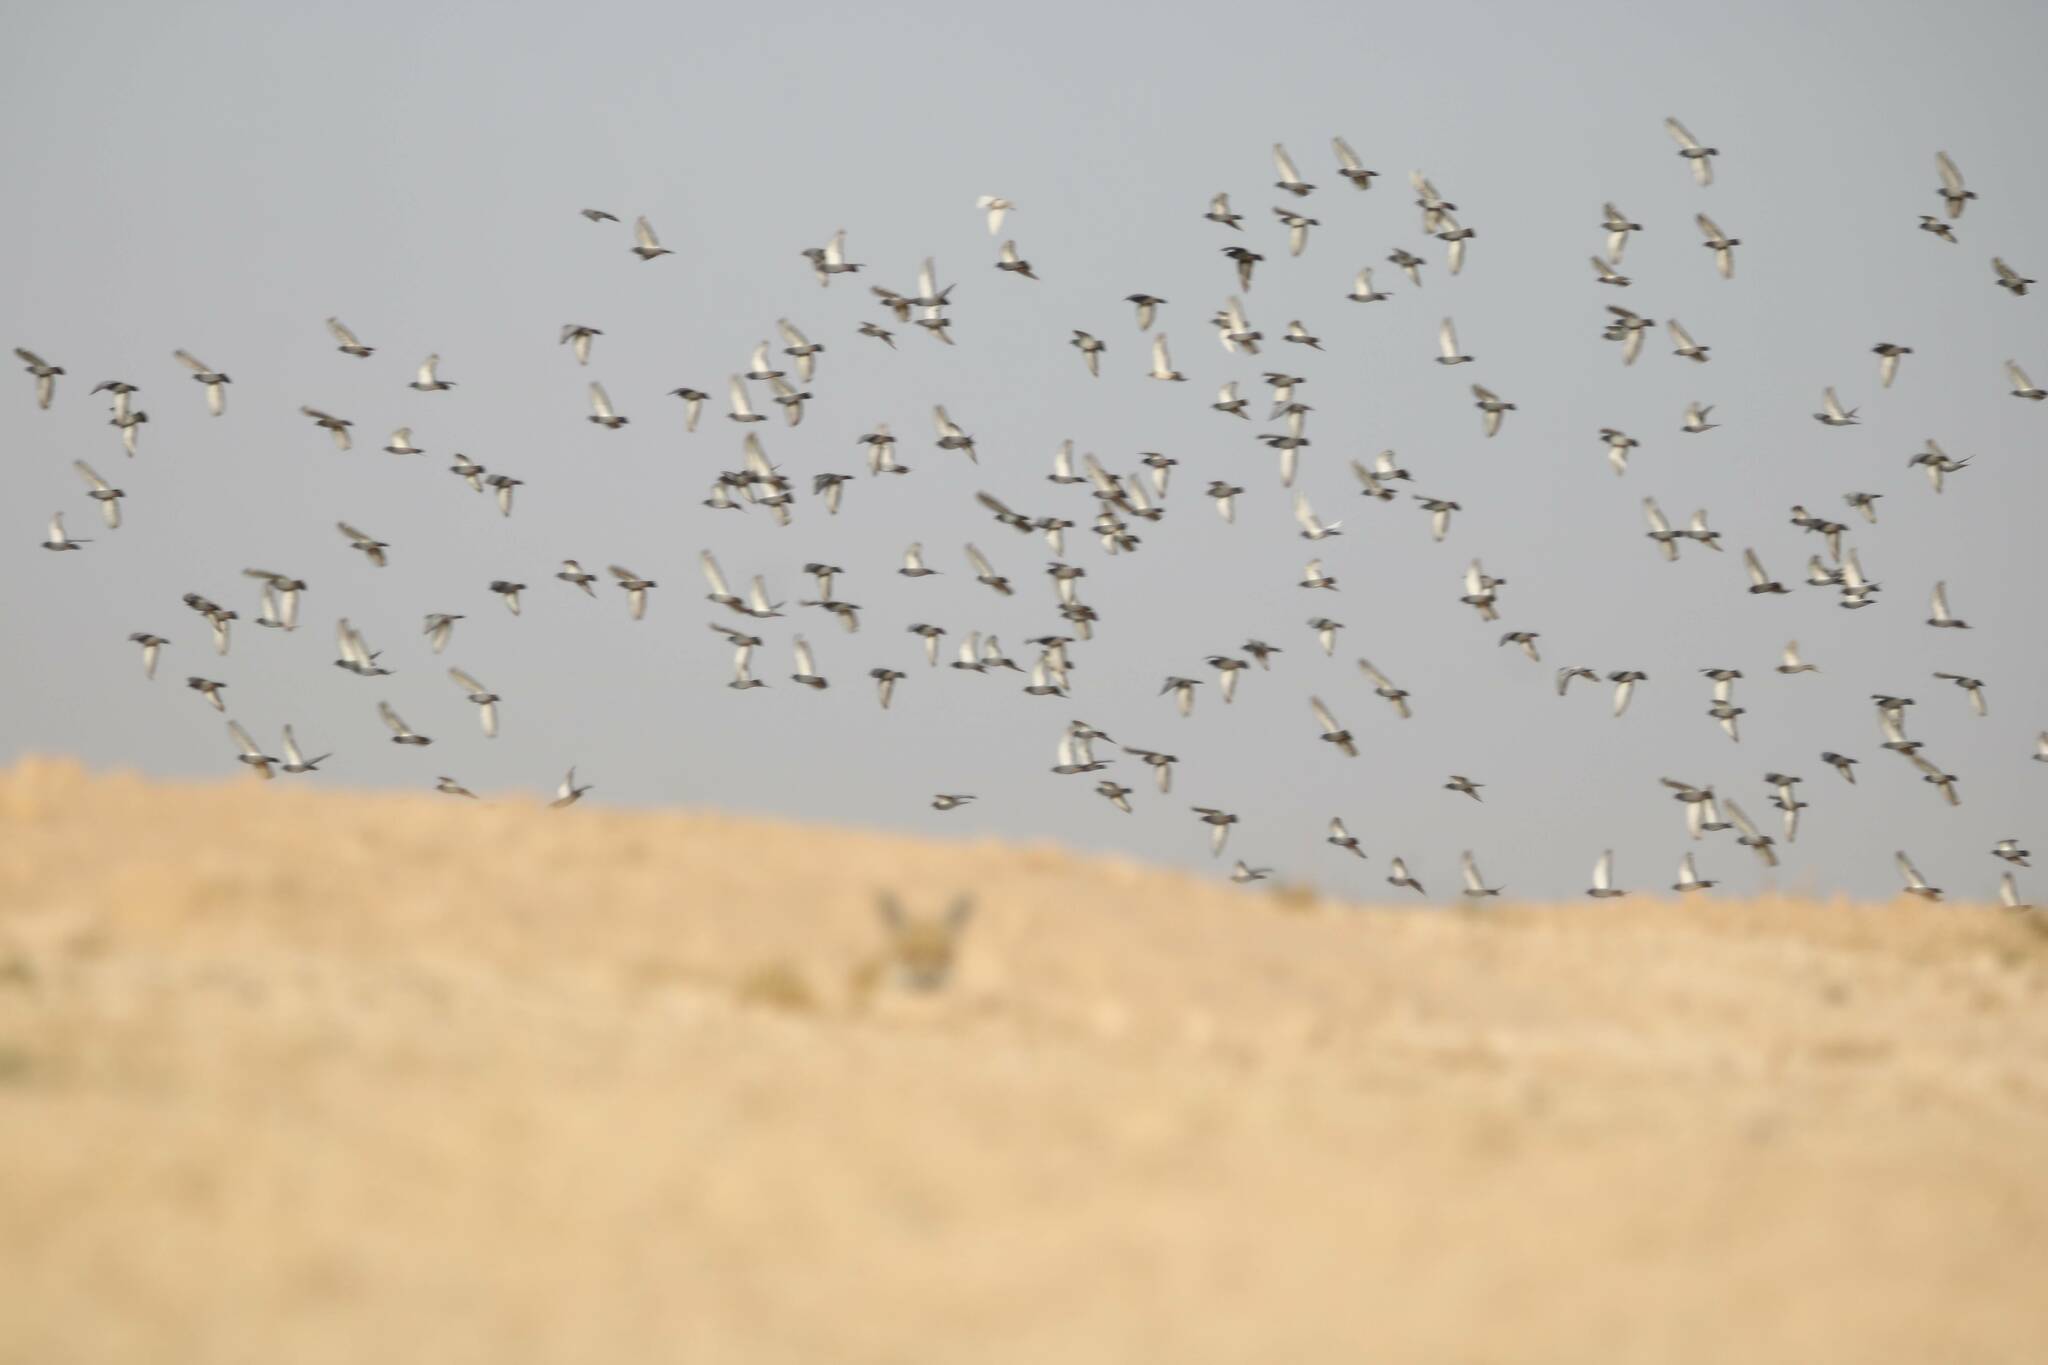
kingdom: Animalia
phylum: Chordata
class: Aves
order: Columbiformes
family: Columbidae
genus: Columba
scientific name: Columba livia
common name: Rock pigeon
